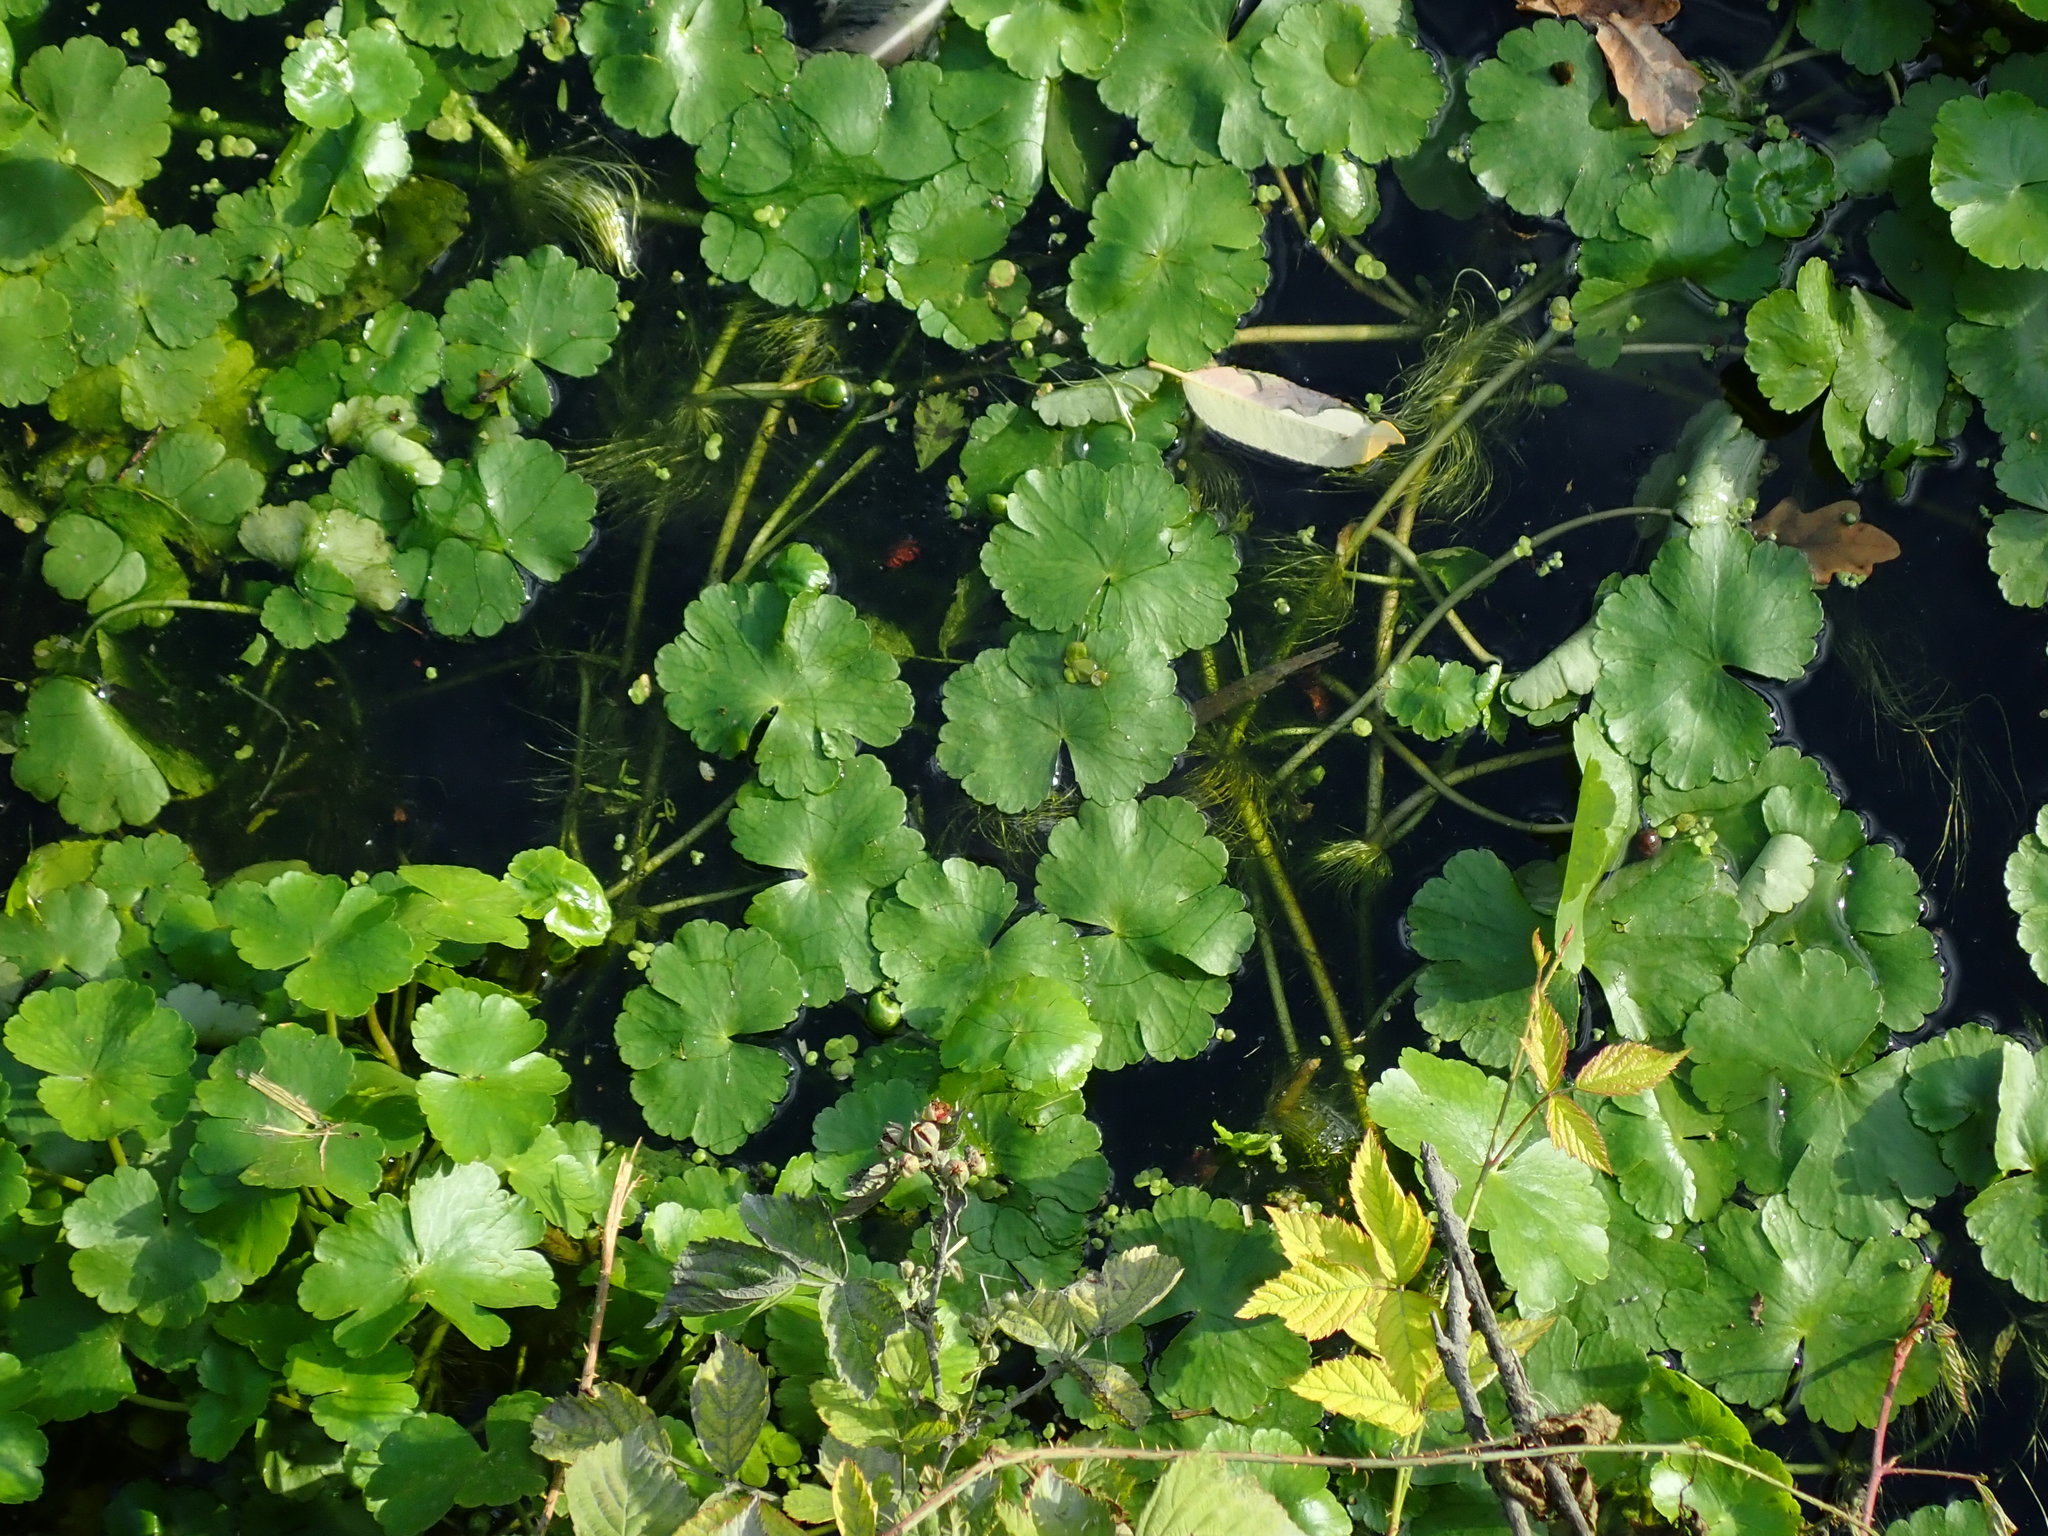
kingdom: Plantae
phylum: Tracheophyta
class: Magnoliopsida
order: Apiales
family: Araliaceae
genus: Hydrocotyle
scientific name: Hydrocotyle ranunculoides
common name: Floating pennywort
